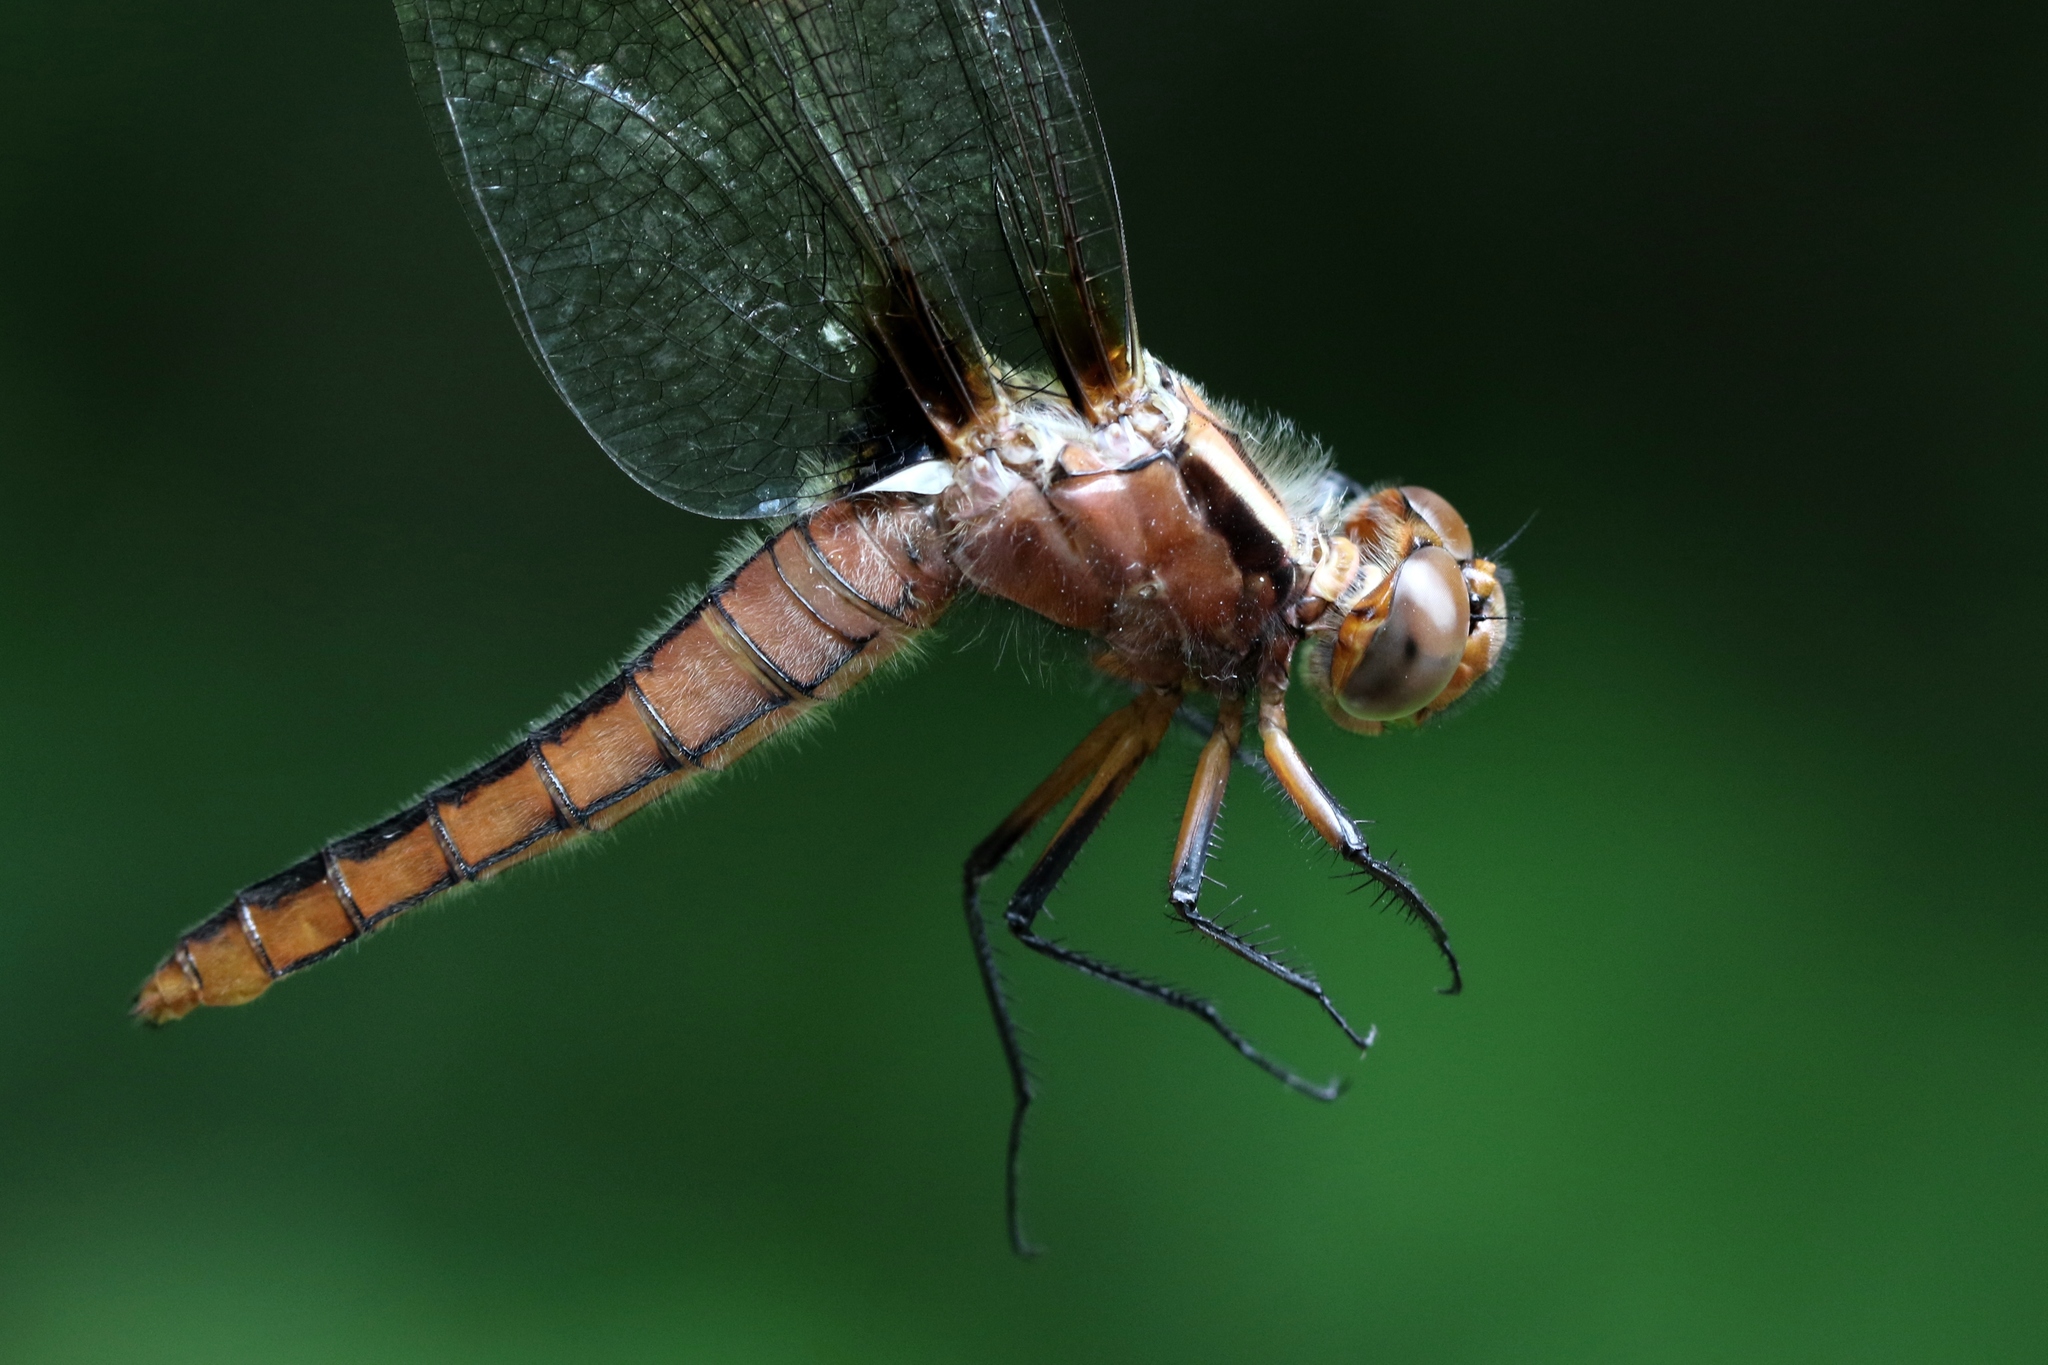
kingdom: Animalia
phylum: Arthropoda
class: Insecta
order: Odonata
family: Libellulidae
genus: Ladona
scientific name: Ladona julia
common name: Chalk-fronted corporal
